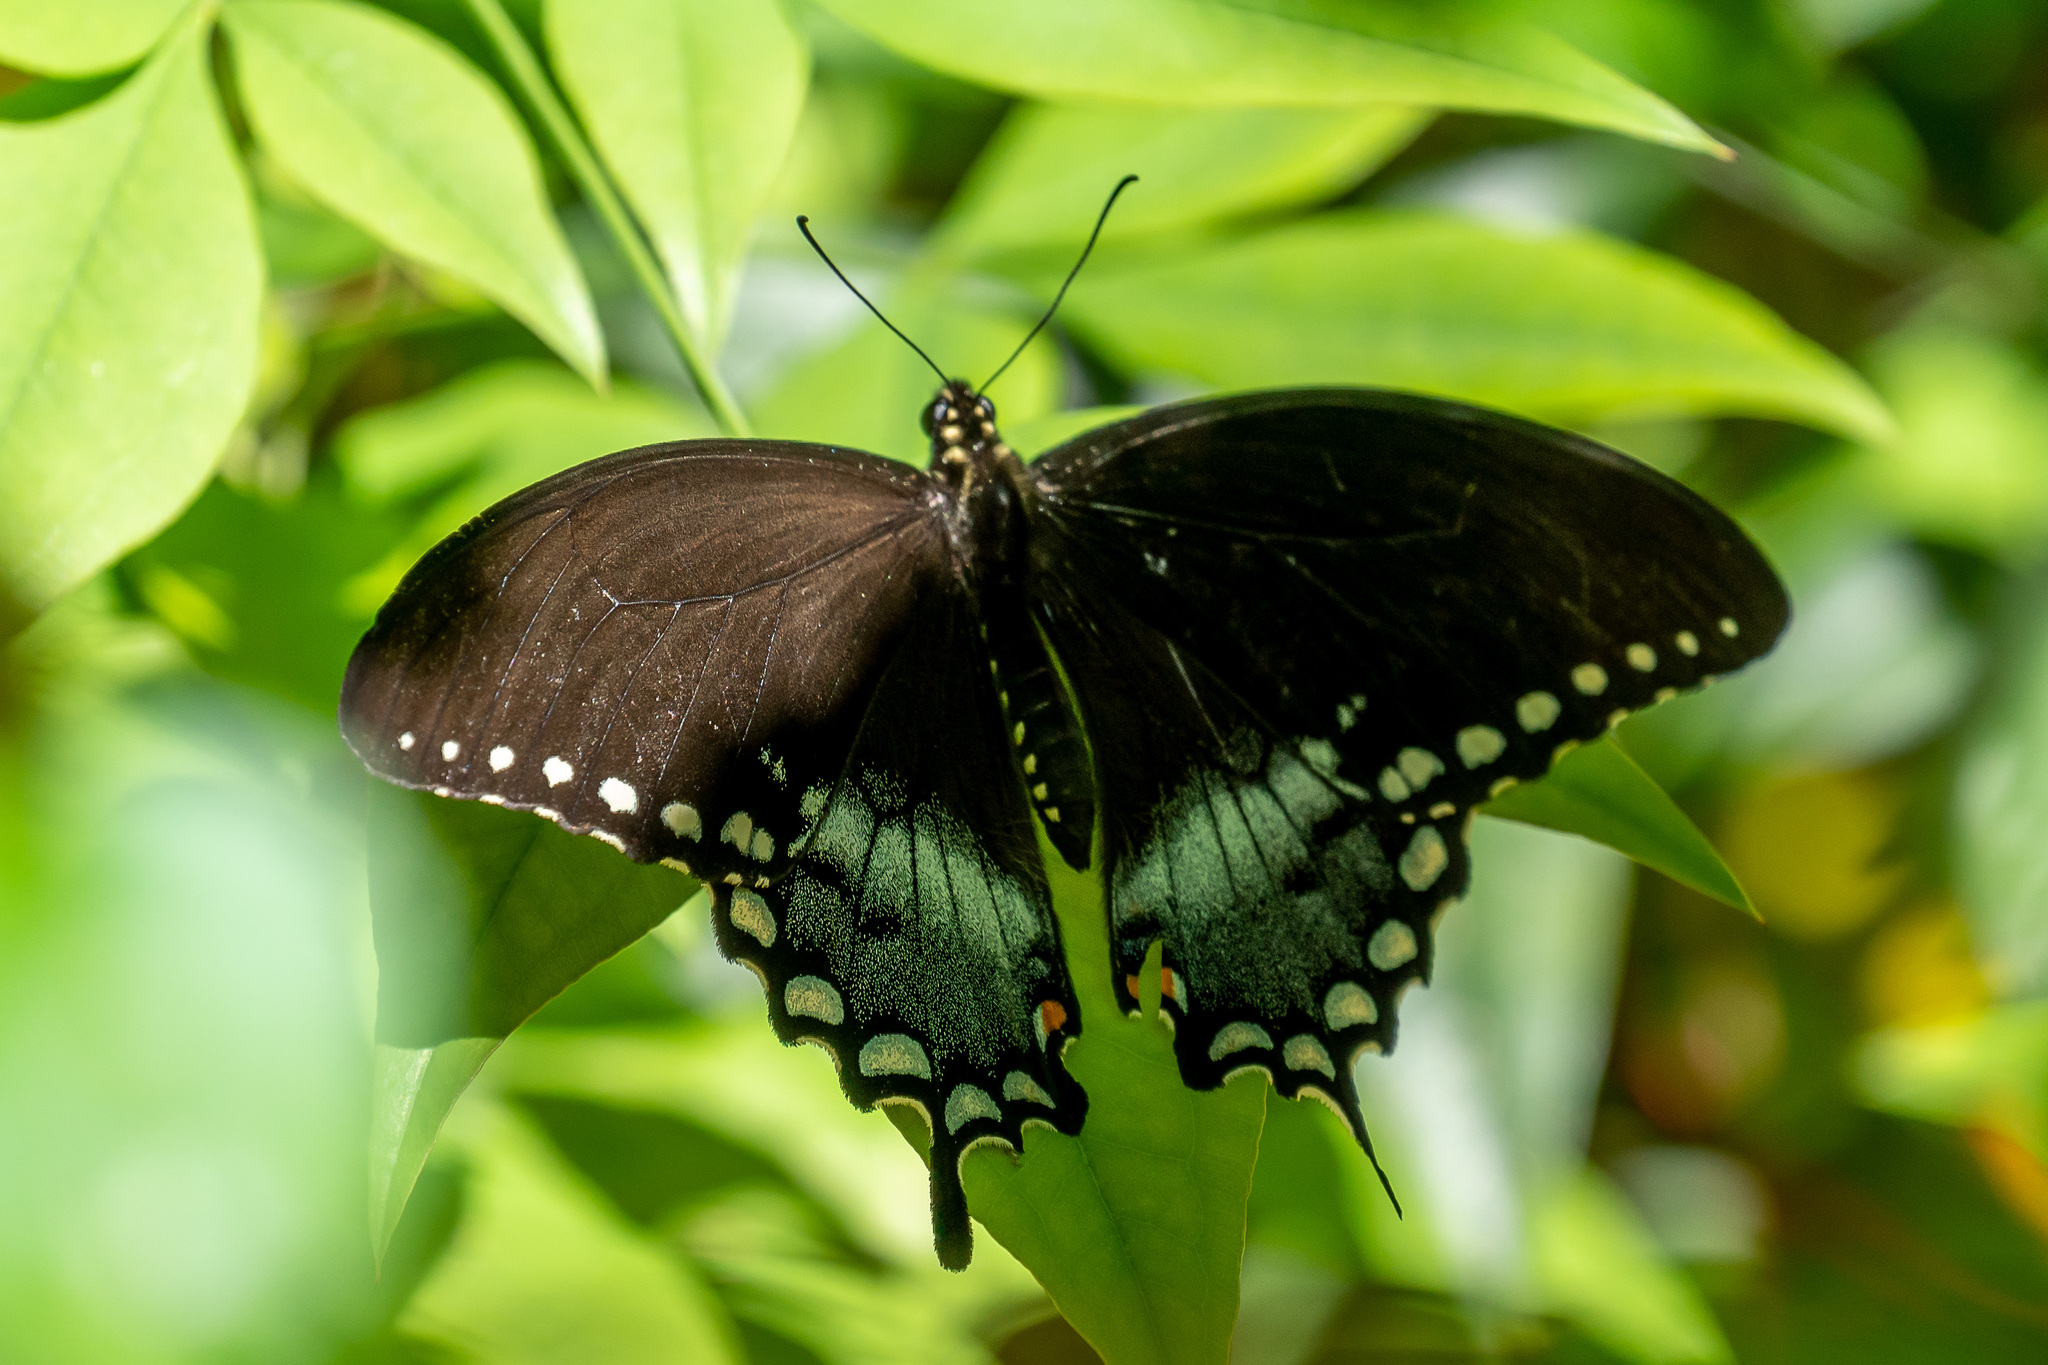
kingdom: Animalia
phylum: Arthropoda
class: Insecta
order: Lepidoptera
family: Papilionidae
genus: Papilio
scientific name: Papilio troilus
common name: Spicebush swallowtail
